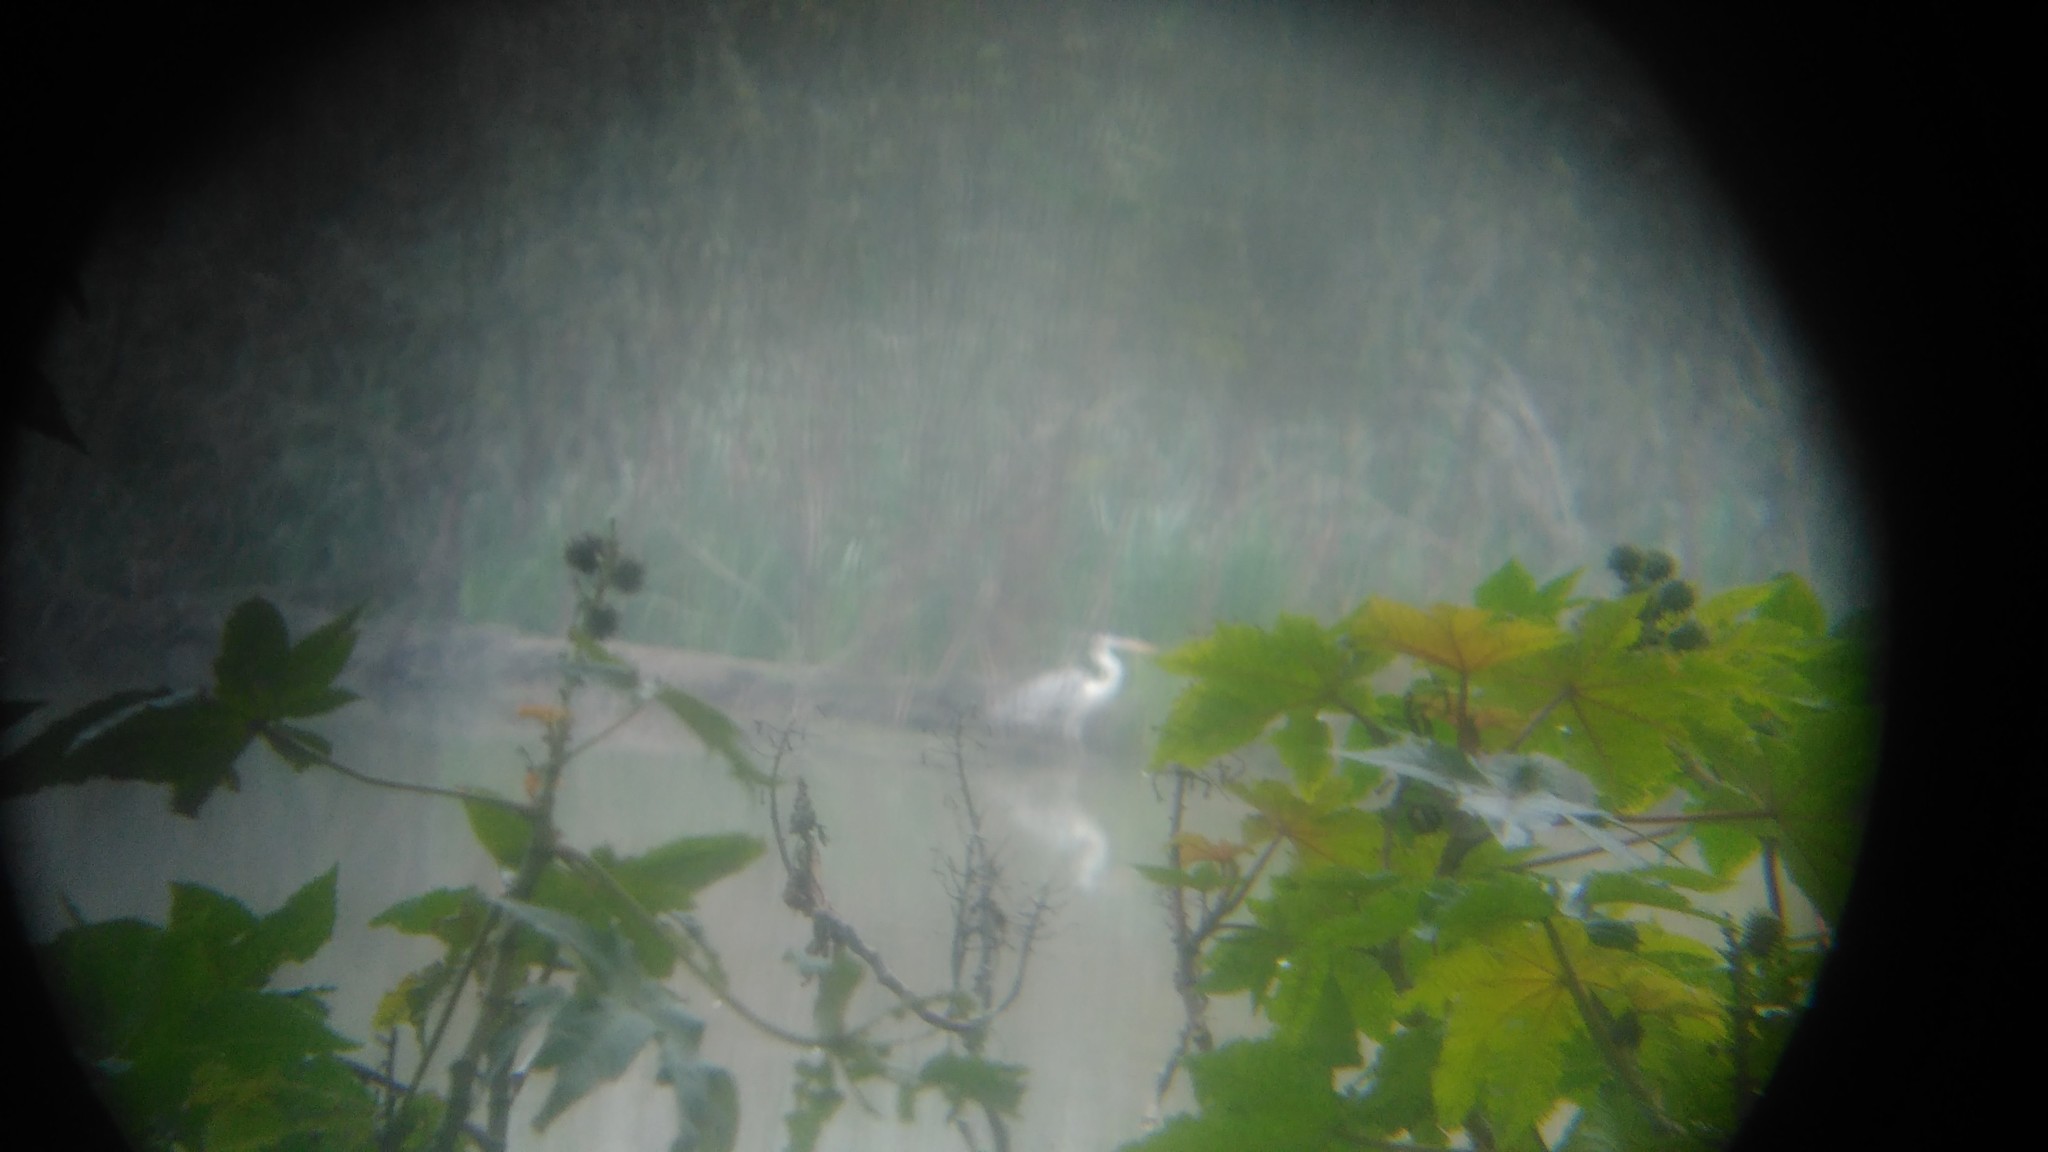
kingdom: Animalia
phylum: Chordata
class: Aves
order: Pelecaniformes
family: Ardeidae
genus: Ardea
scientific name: Ardea cocoi
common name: Cocoi heron
